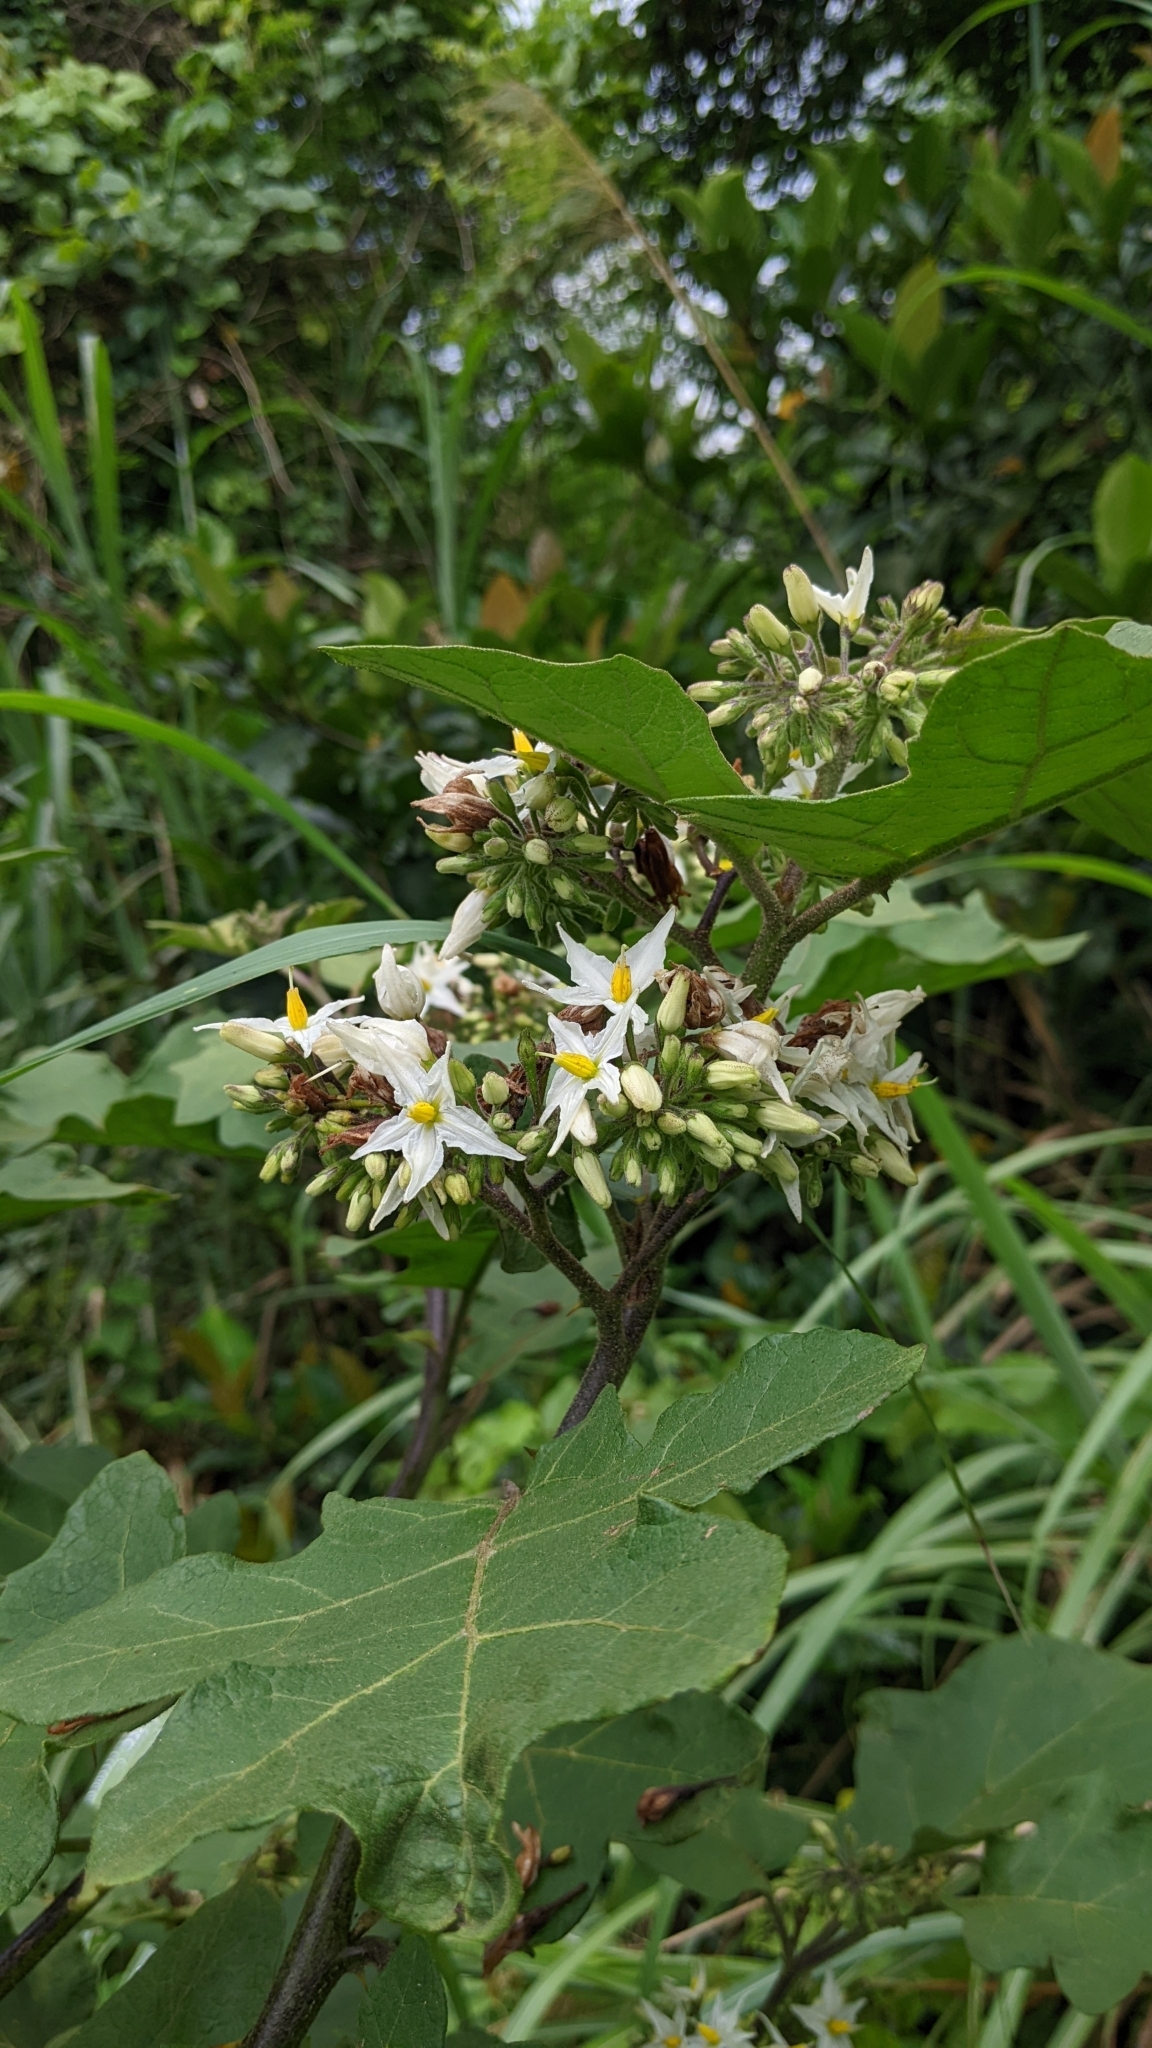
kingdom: Plantae
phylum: Tracheophyta
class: Magnoliopsida
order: Solanales
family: Solanaceae
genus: Solanum
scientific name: Solanum torvum
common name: Turkey berry
